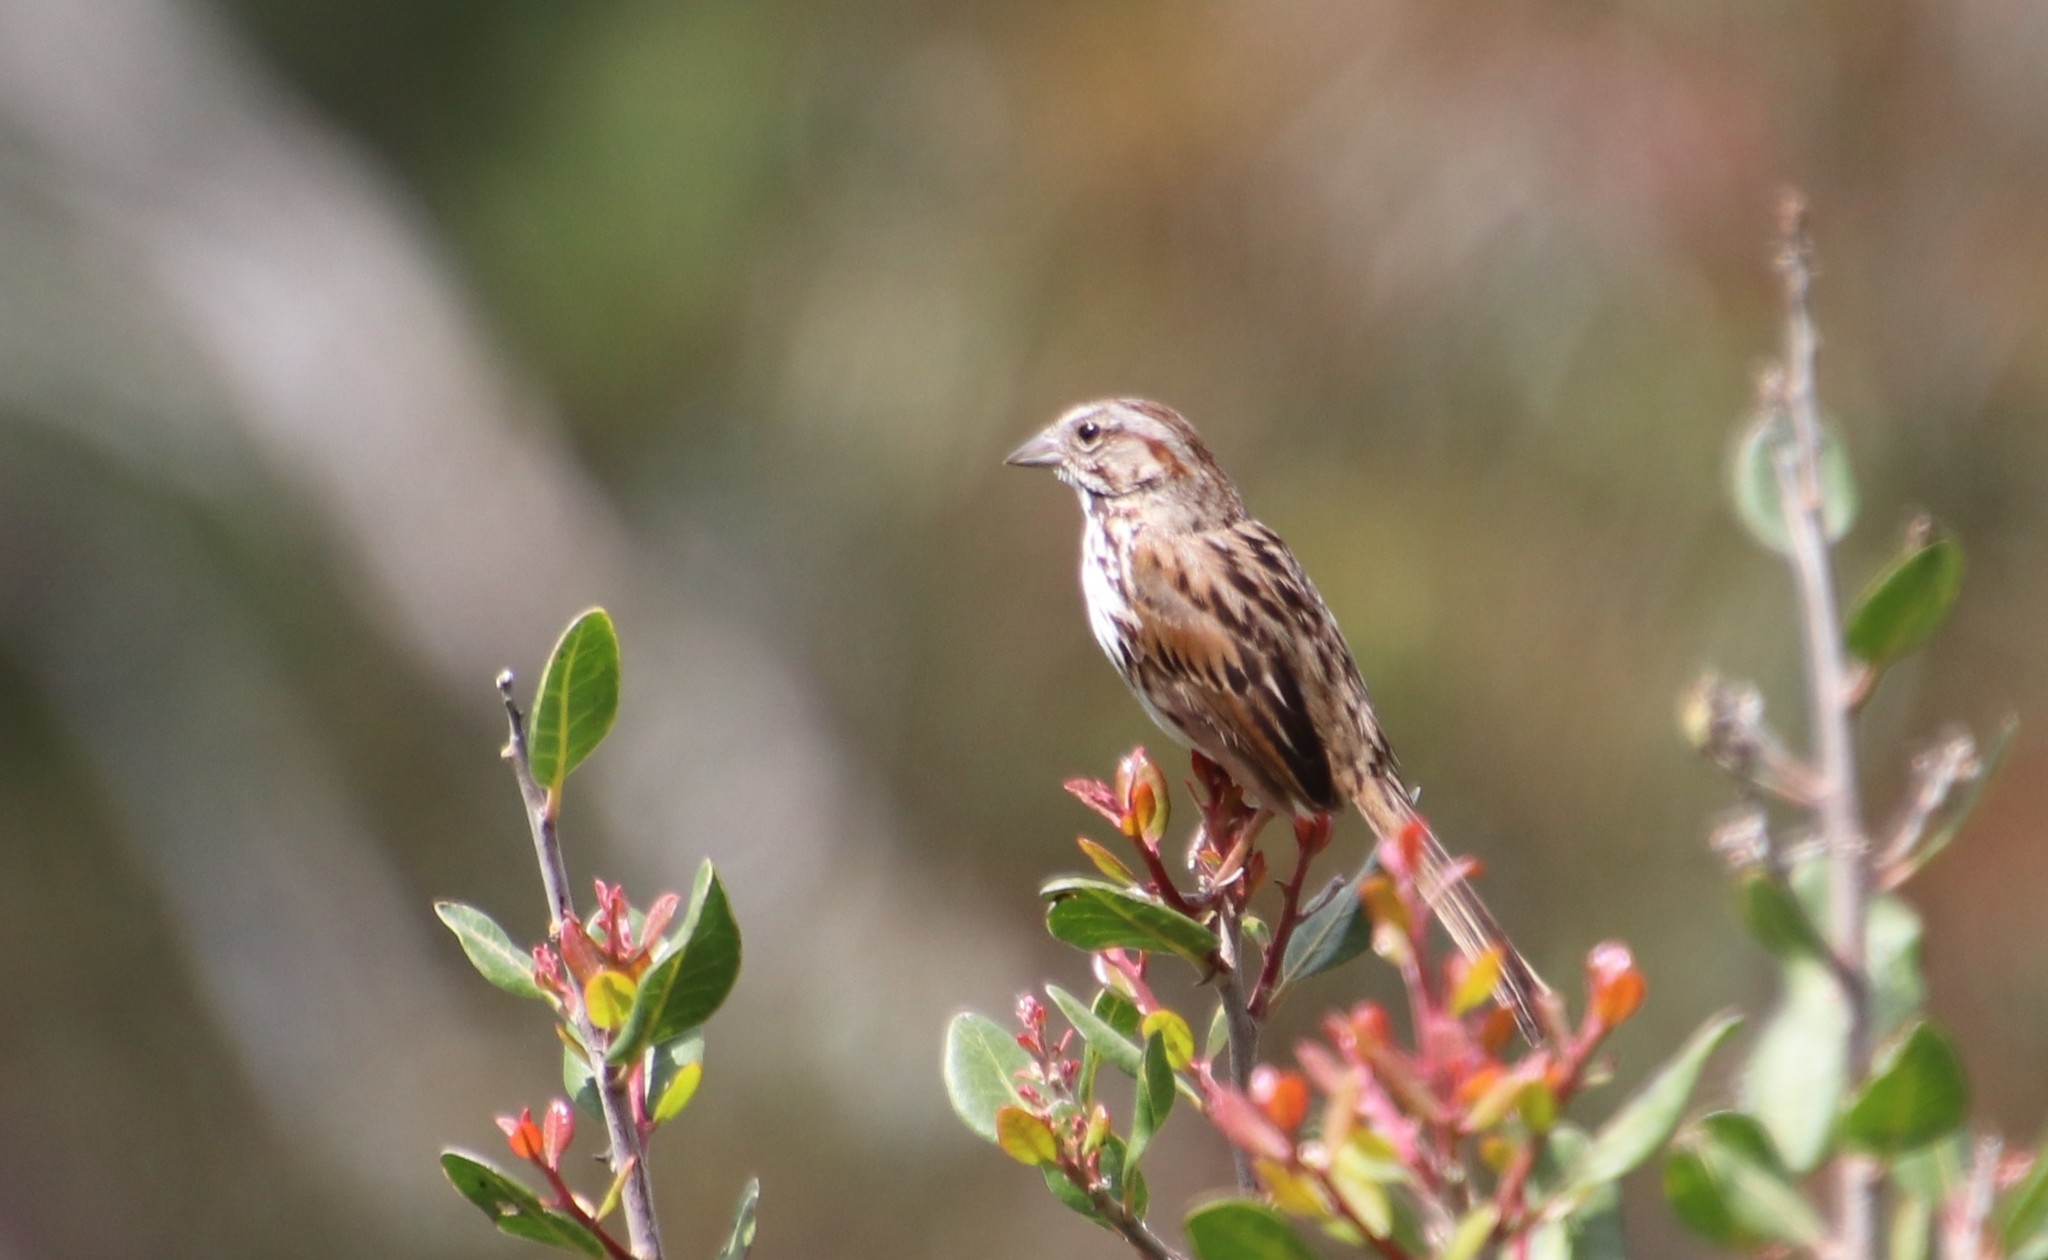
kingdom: Animalia
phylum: Chordata
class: Aves
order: Passeriformes
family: Passerellidae
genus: Melospiza
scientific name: Melospiza melodia
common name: Song sparrow
